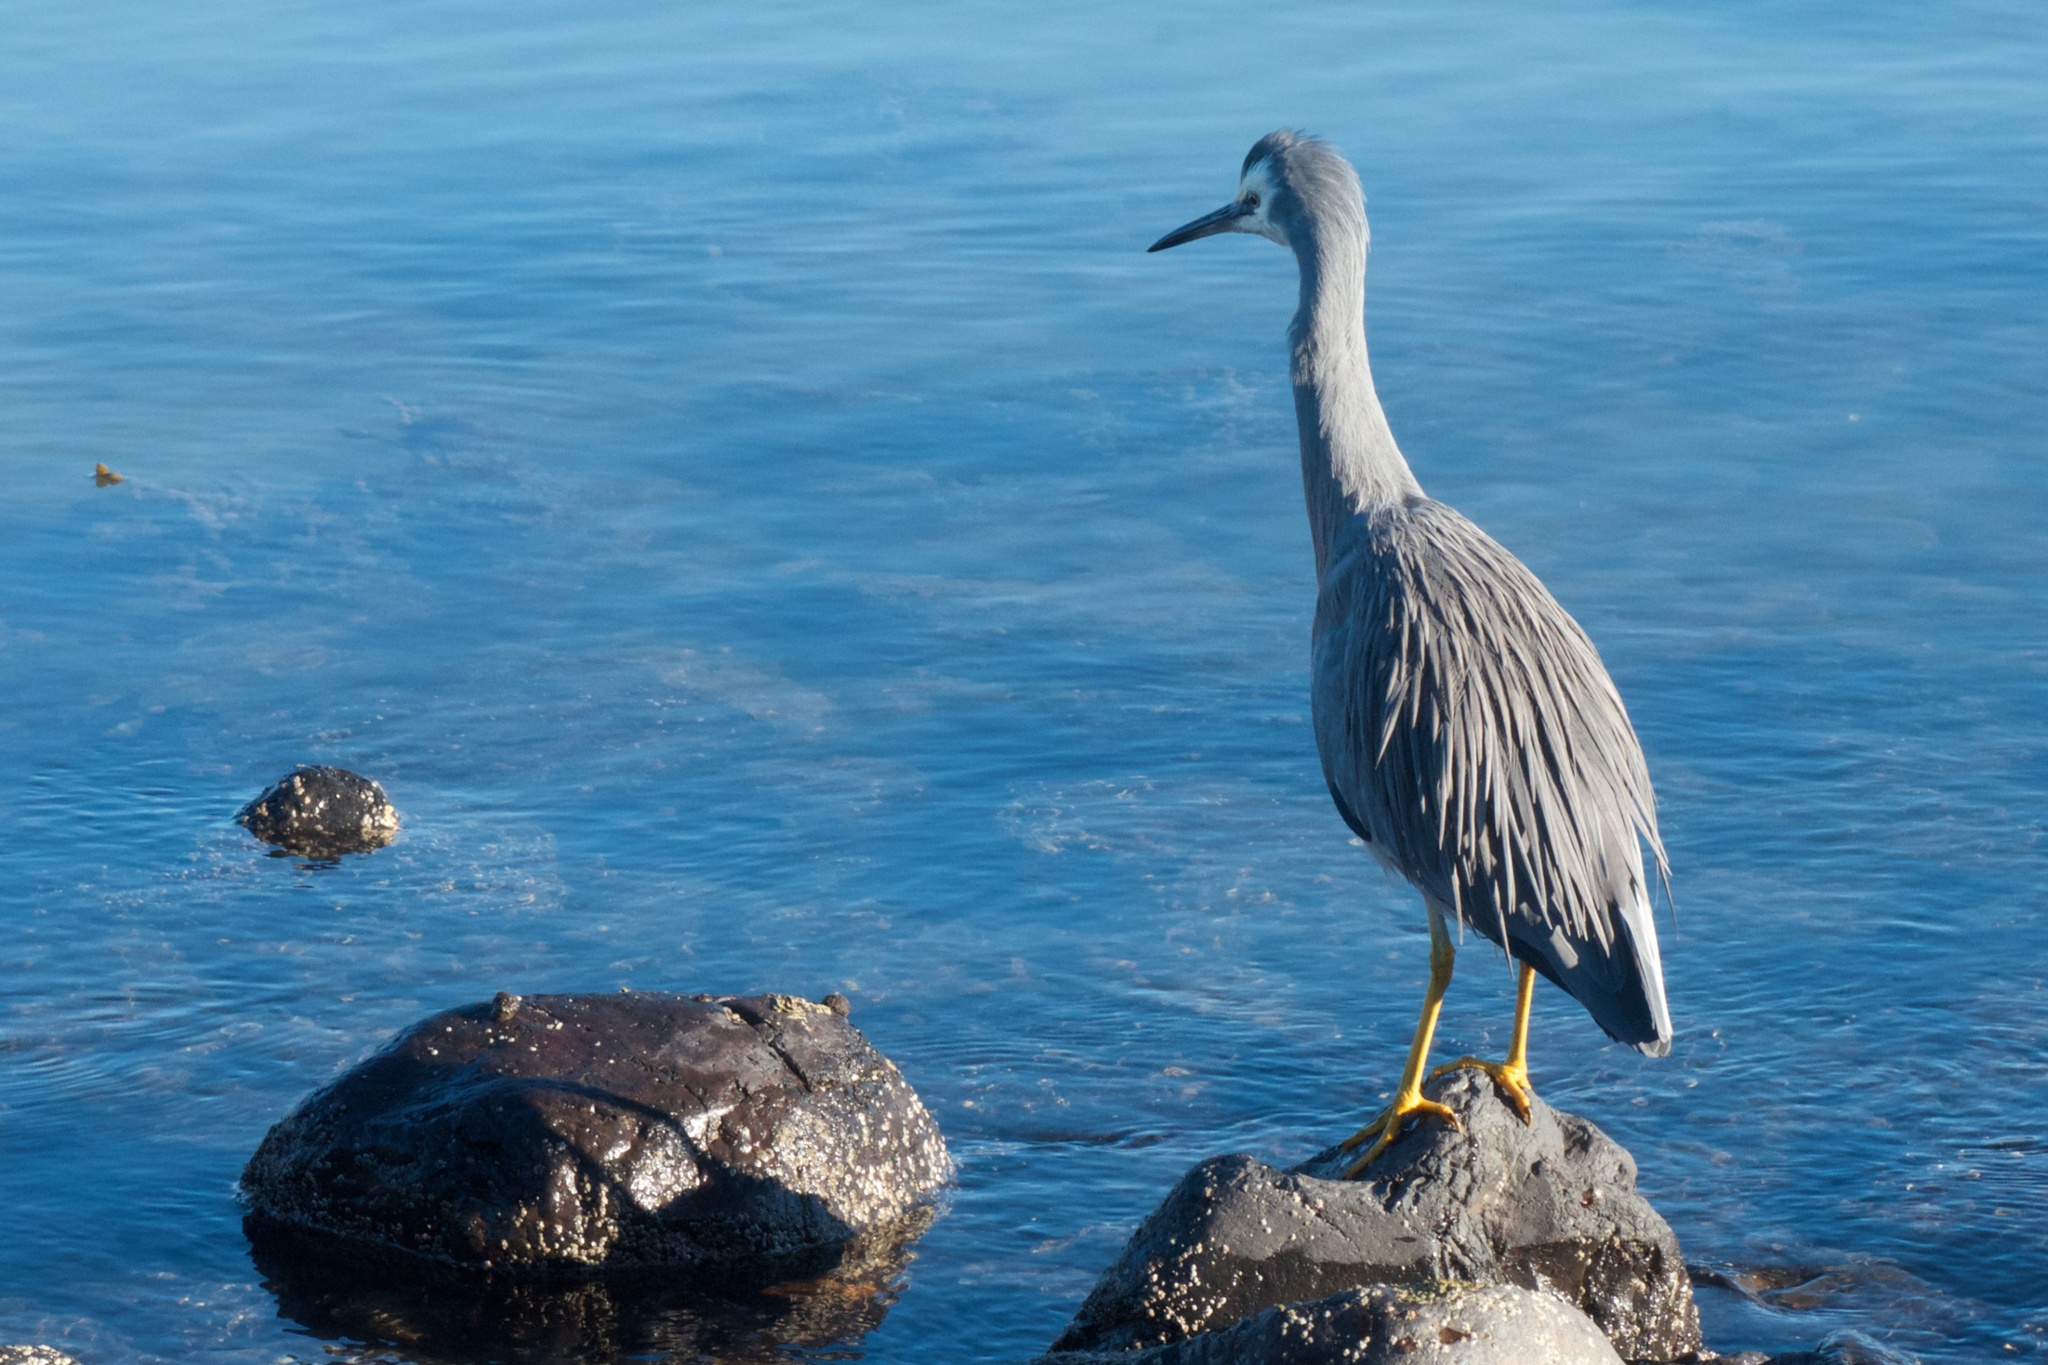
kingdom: Animalia
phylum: Chordata
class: Aves
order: Pelecaniformes
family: Ardeidae
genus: Egretta
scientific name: Egretta novaehollandiae
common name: White-faced heron
